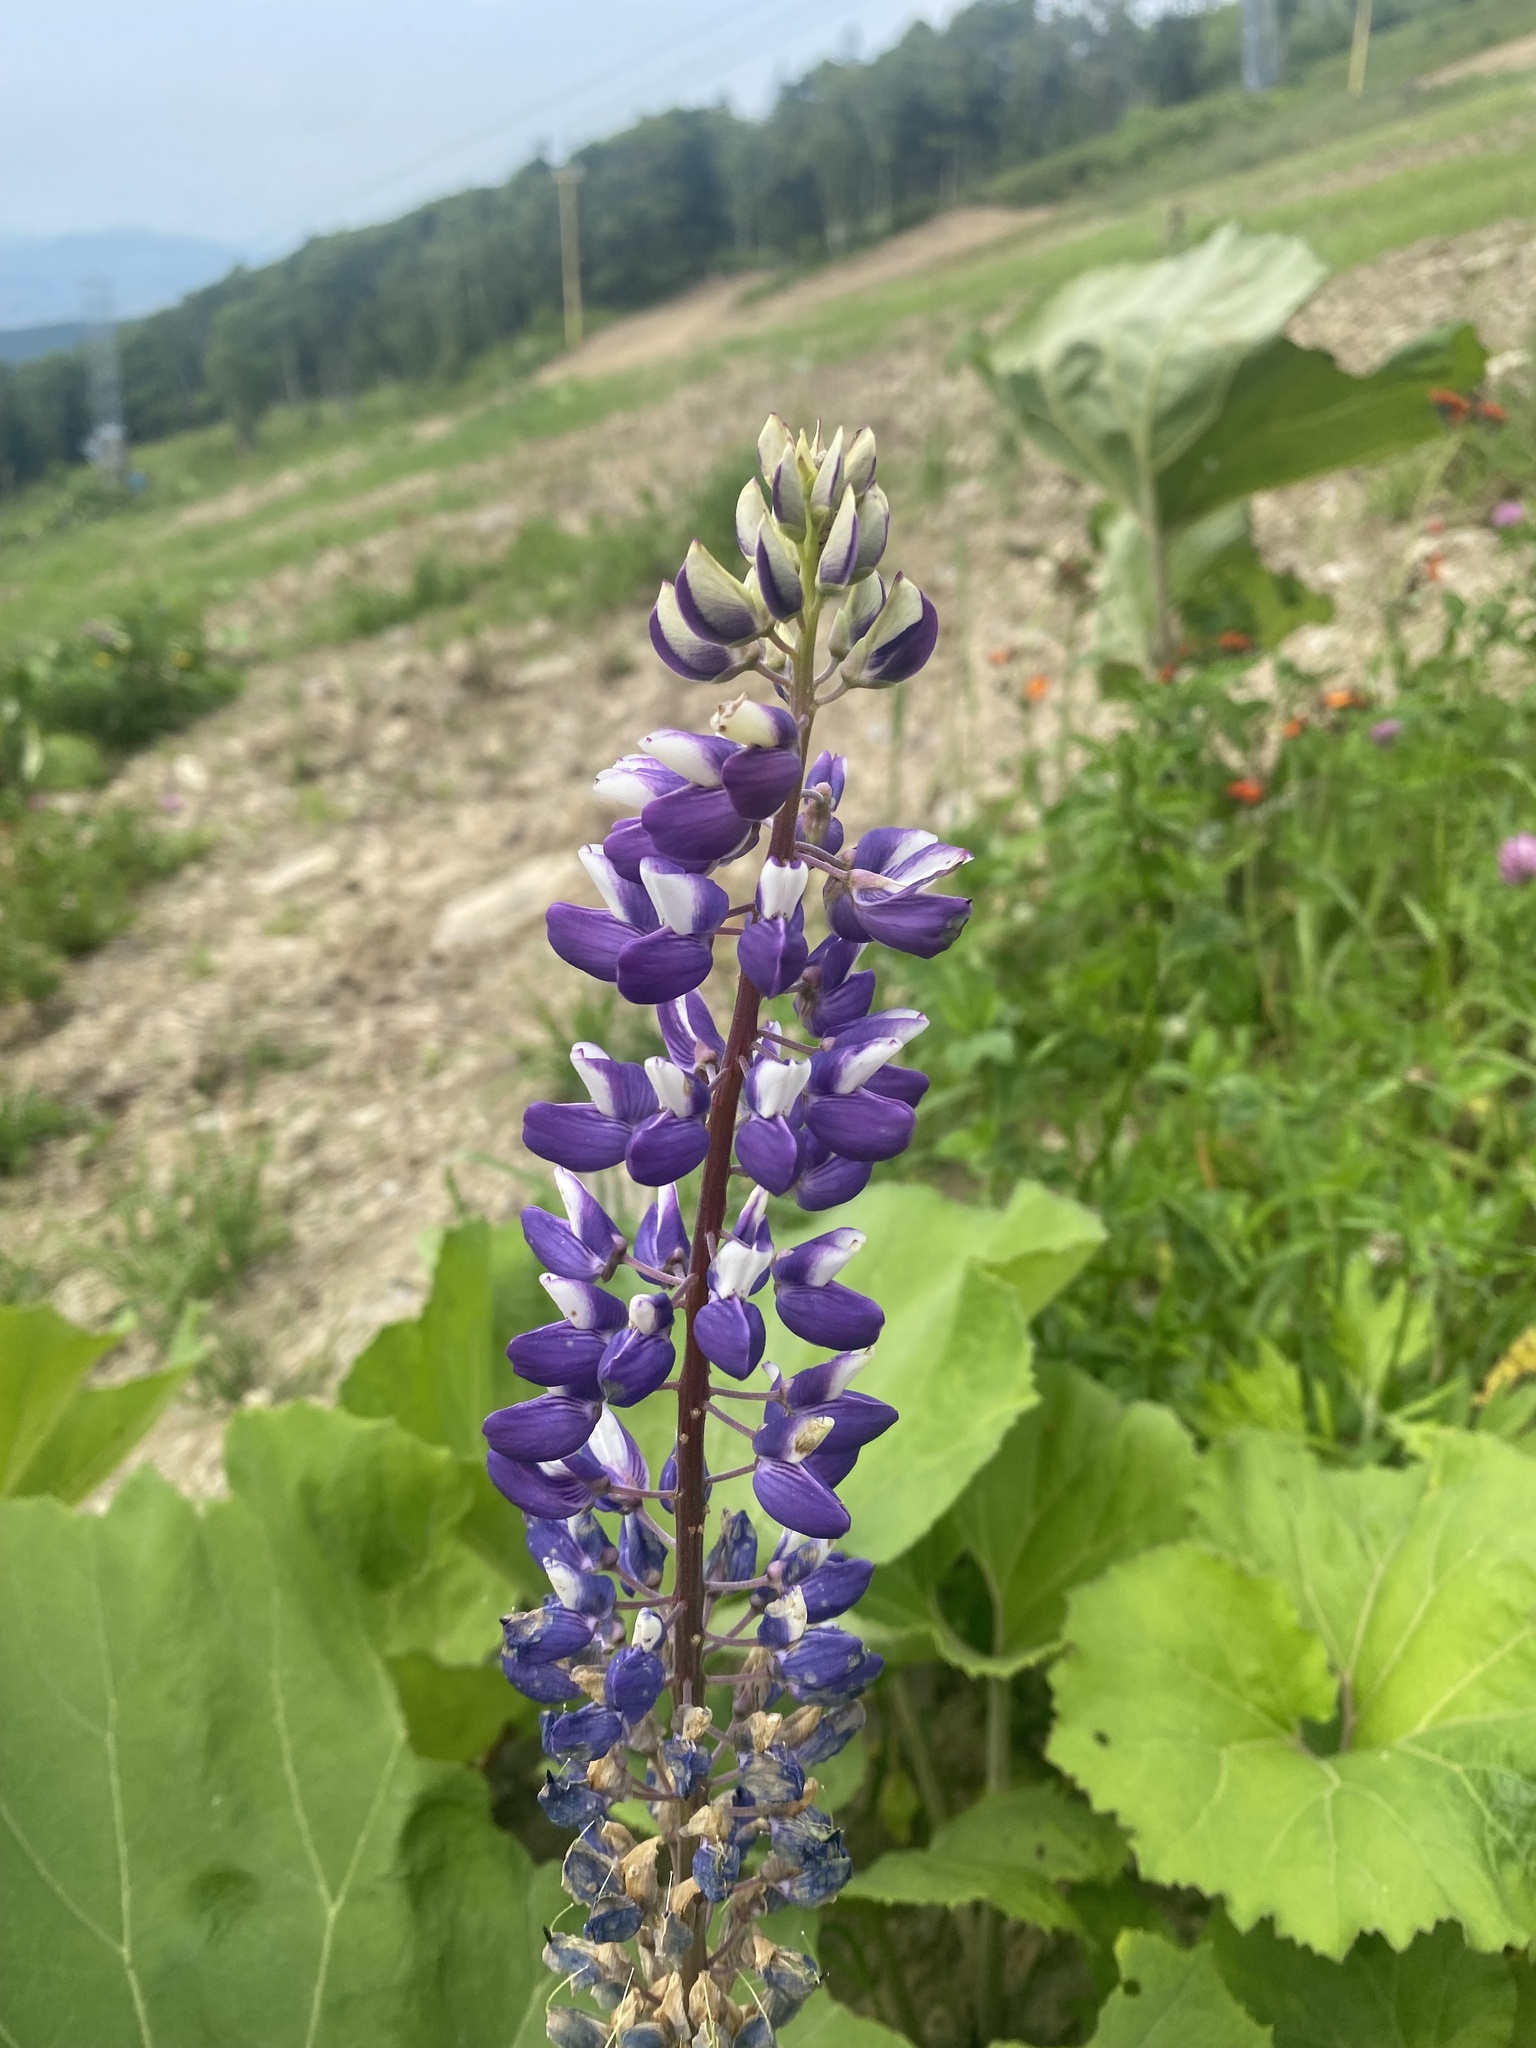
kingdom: Plantae
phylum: Tracheophyta
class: Magnoliopsida
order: Fabales
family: Fabaceae
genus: Lupinus
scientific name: Lupinus polyphyllus
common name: Garden lupin
